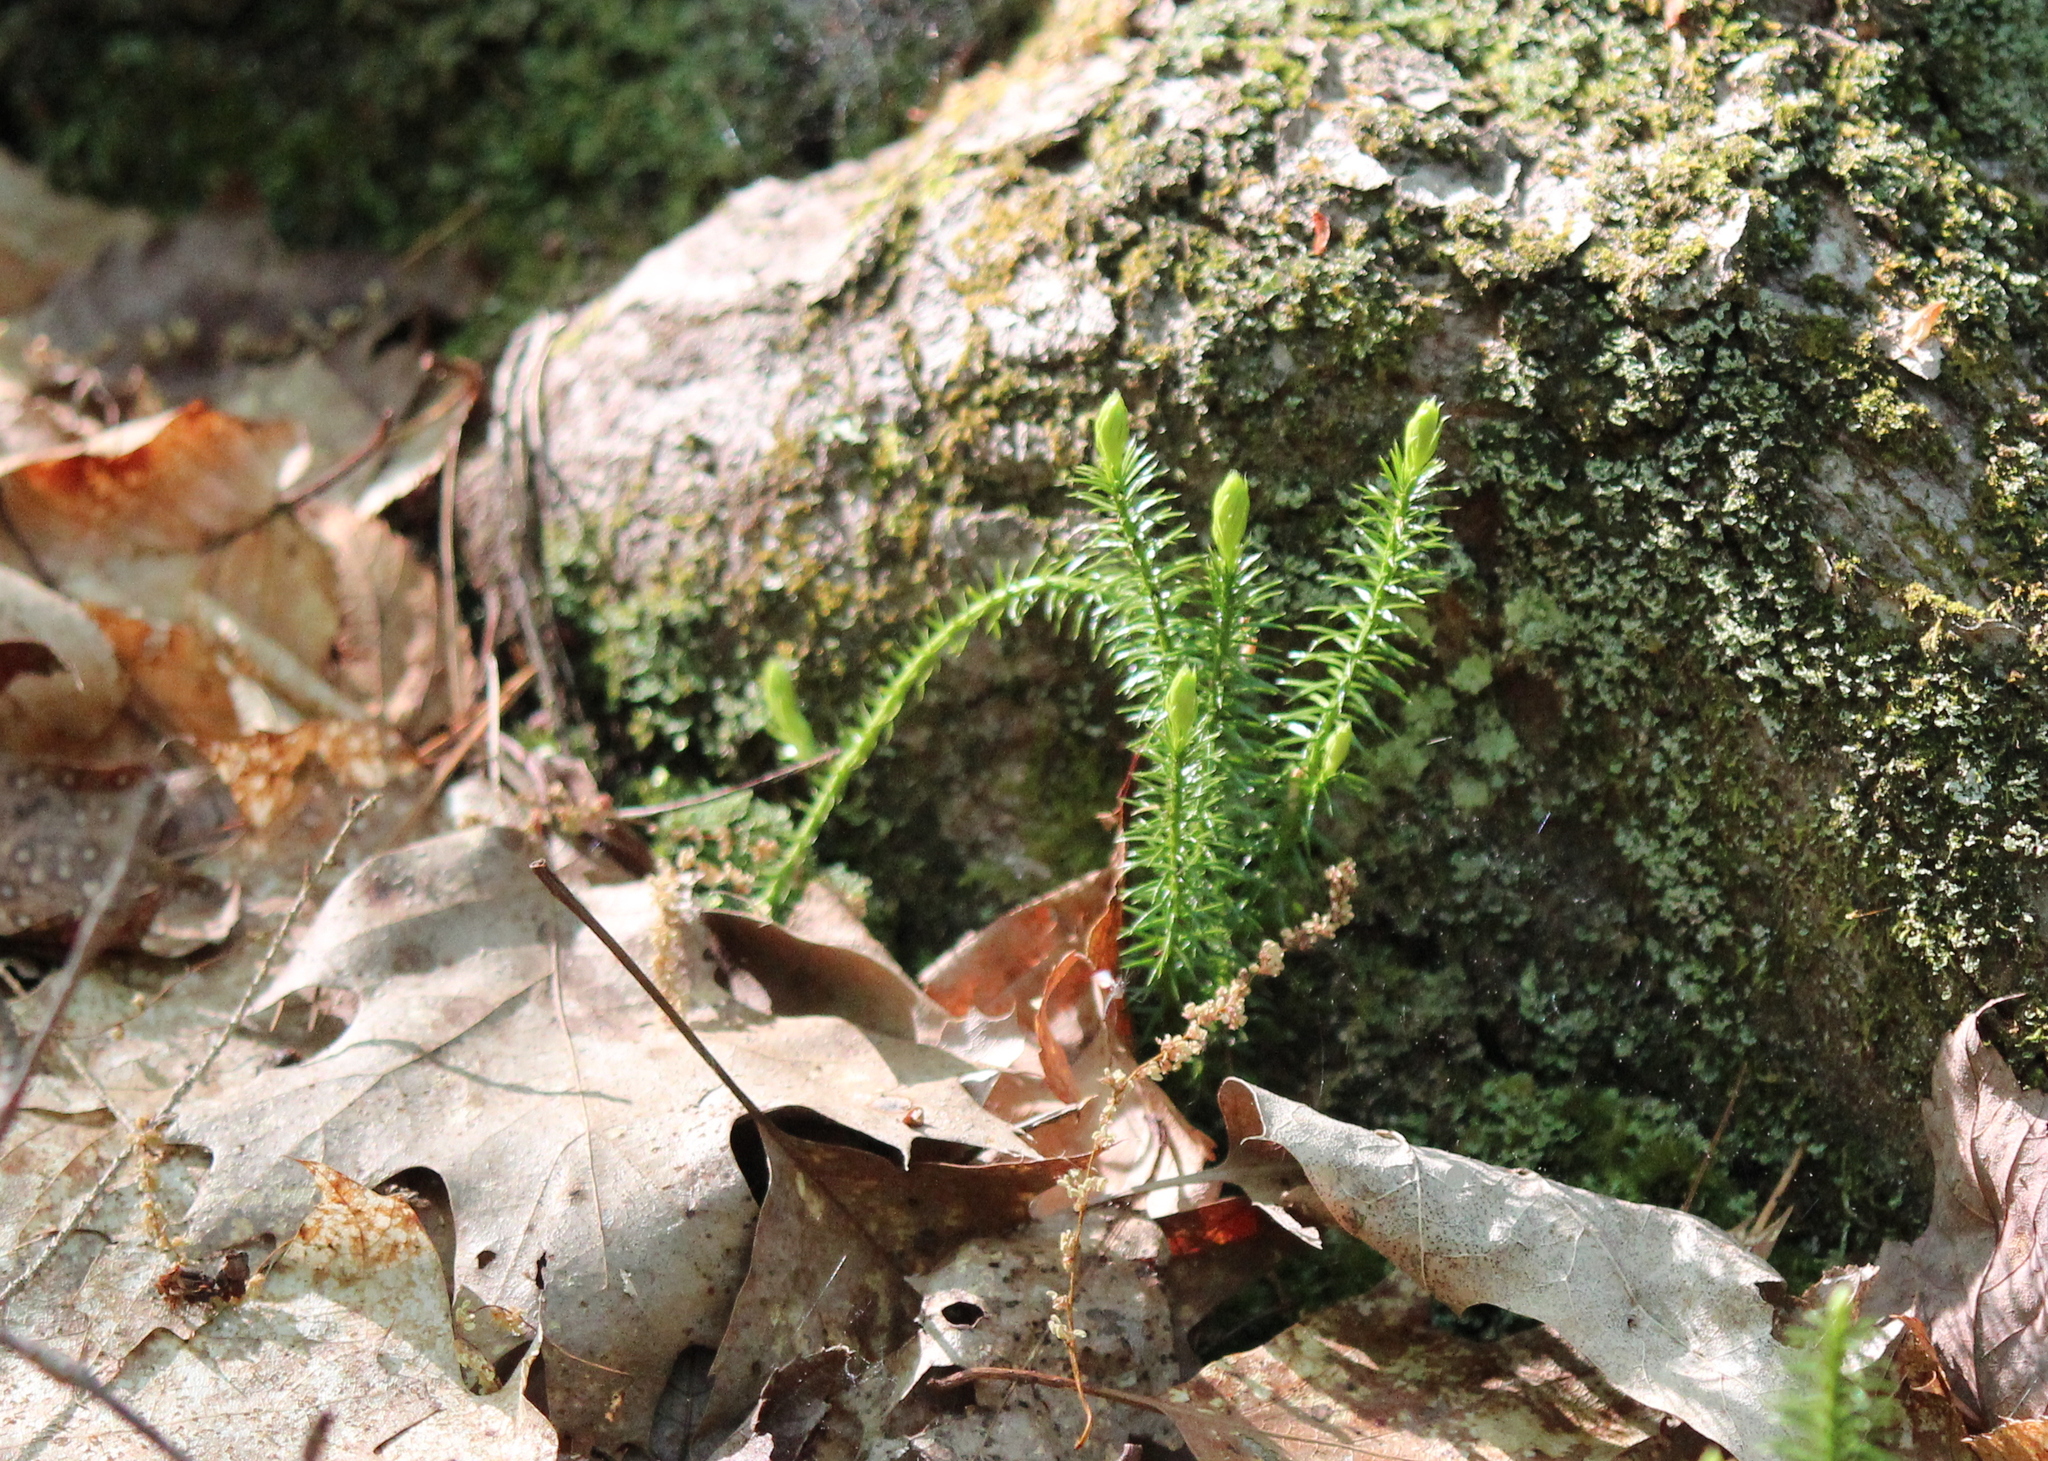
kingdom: Plantae
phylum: Tracheophyta
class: Lycopodiopsida
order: Lycopodiales
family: Lycopodiaceae
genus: Spinulum
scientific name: Spinulum annotinum
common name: Interrupted club-moss
